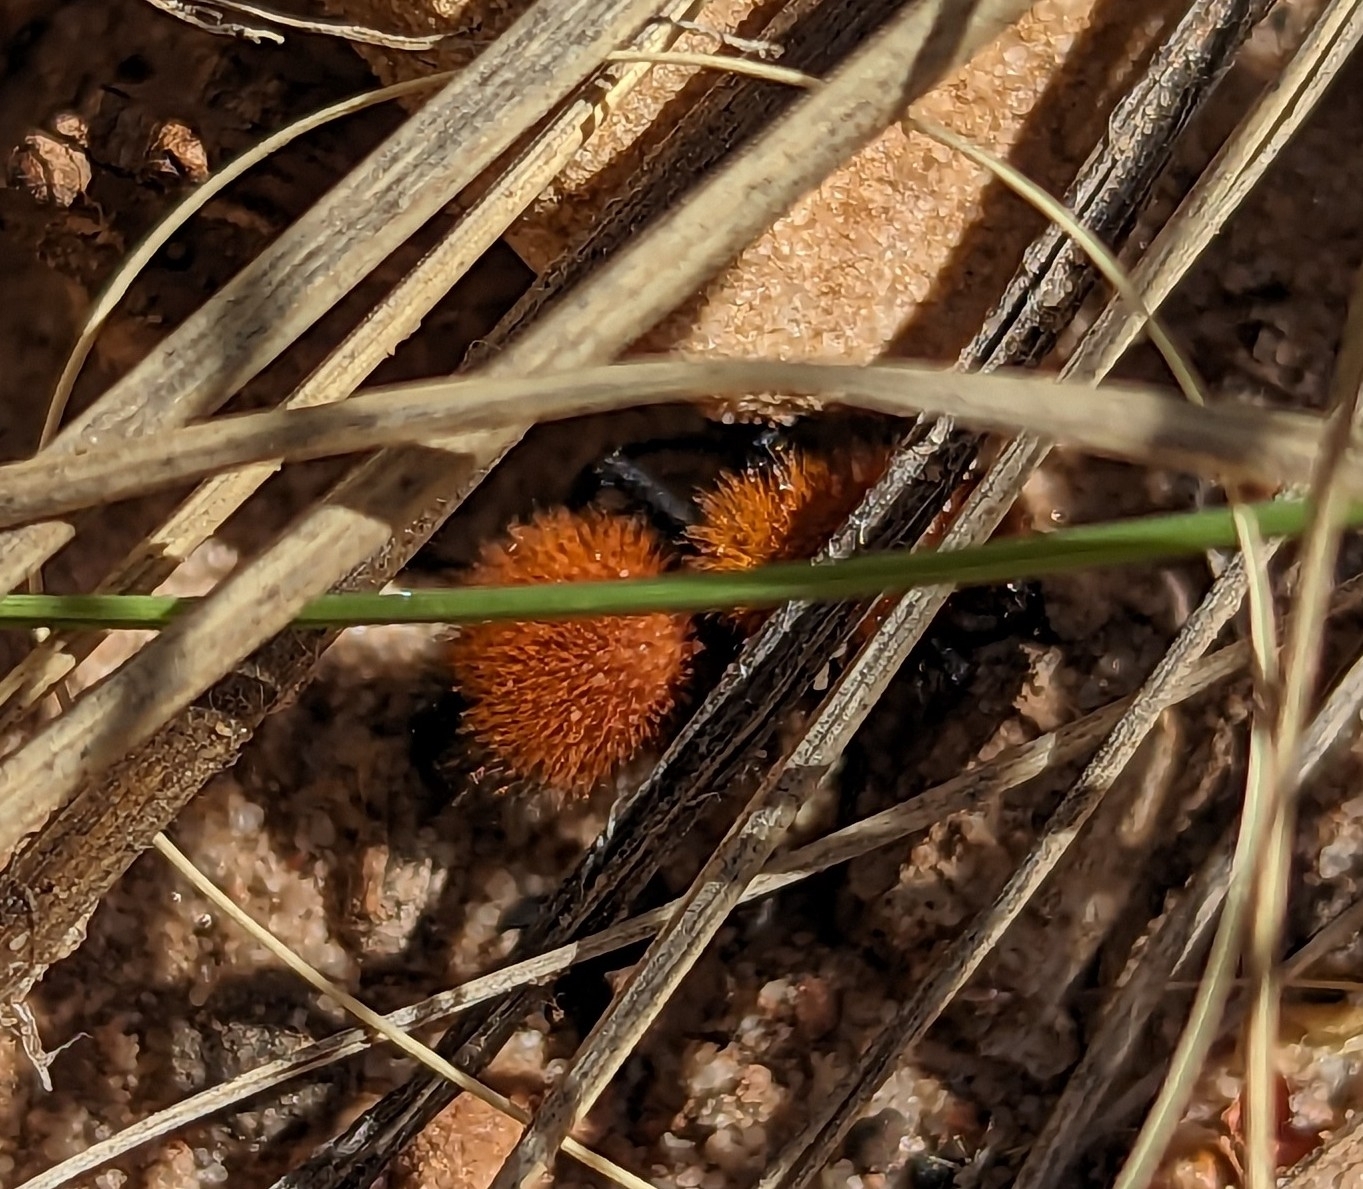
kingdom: Animalia
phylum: Arthropoda
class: Insecta
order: Hymenoptera
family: Mutillidae
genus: Dasymutilla
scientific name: Dasymutilla vestita
